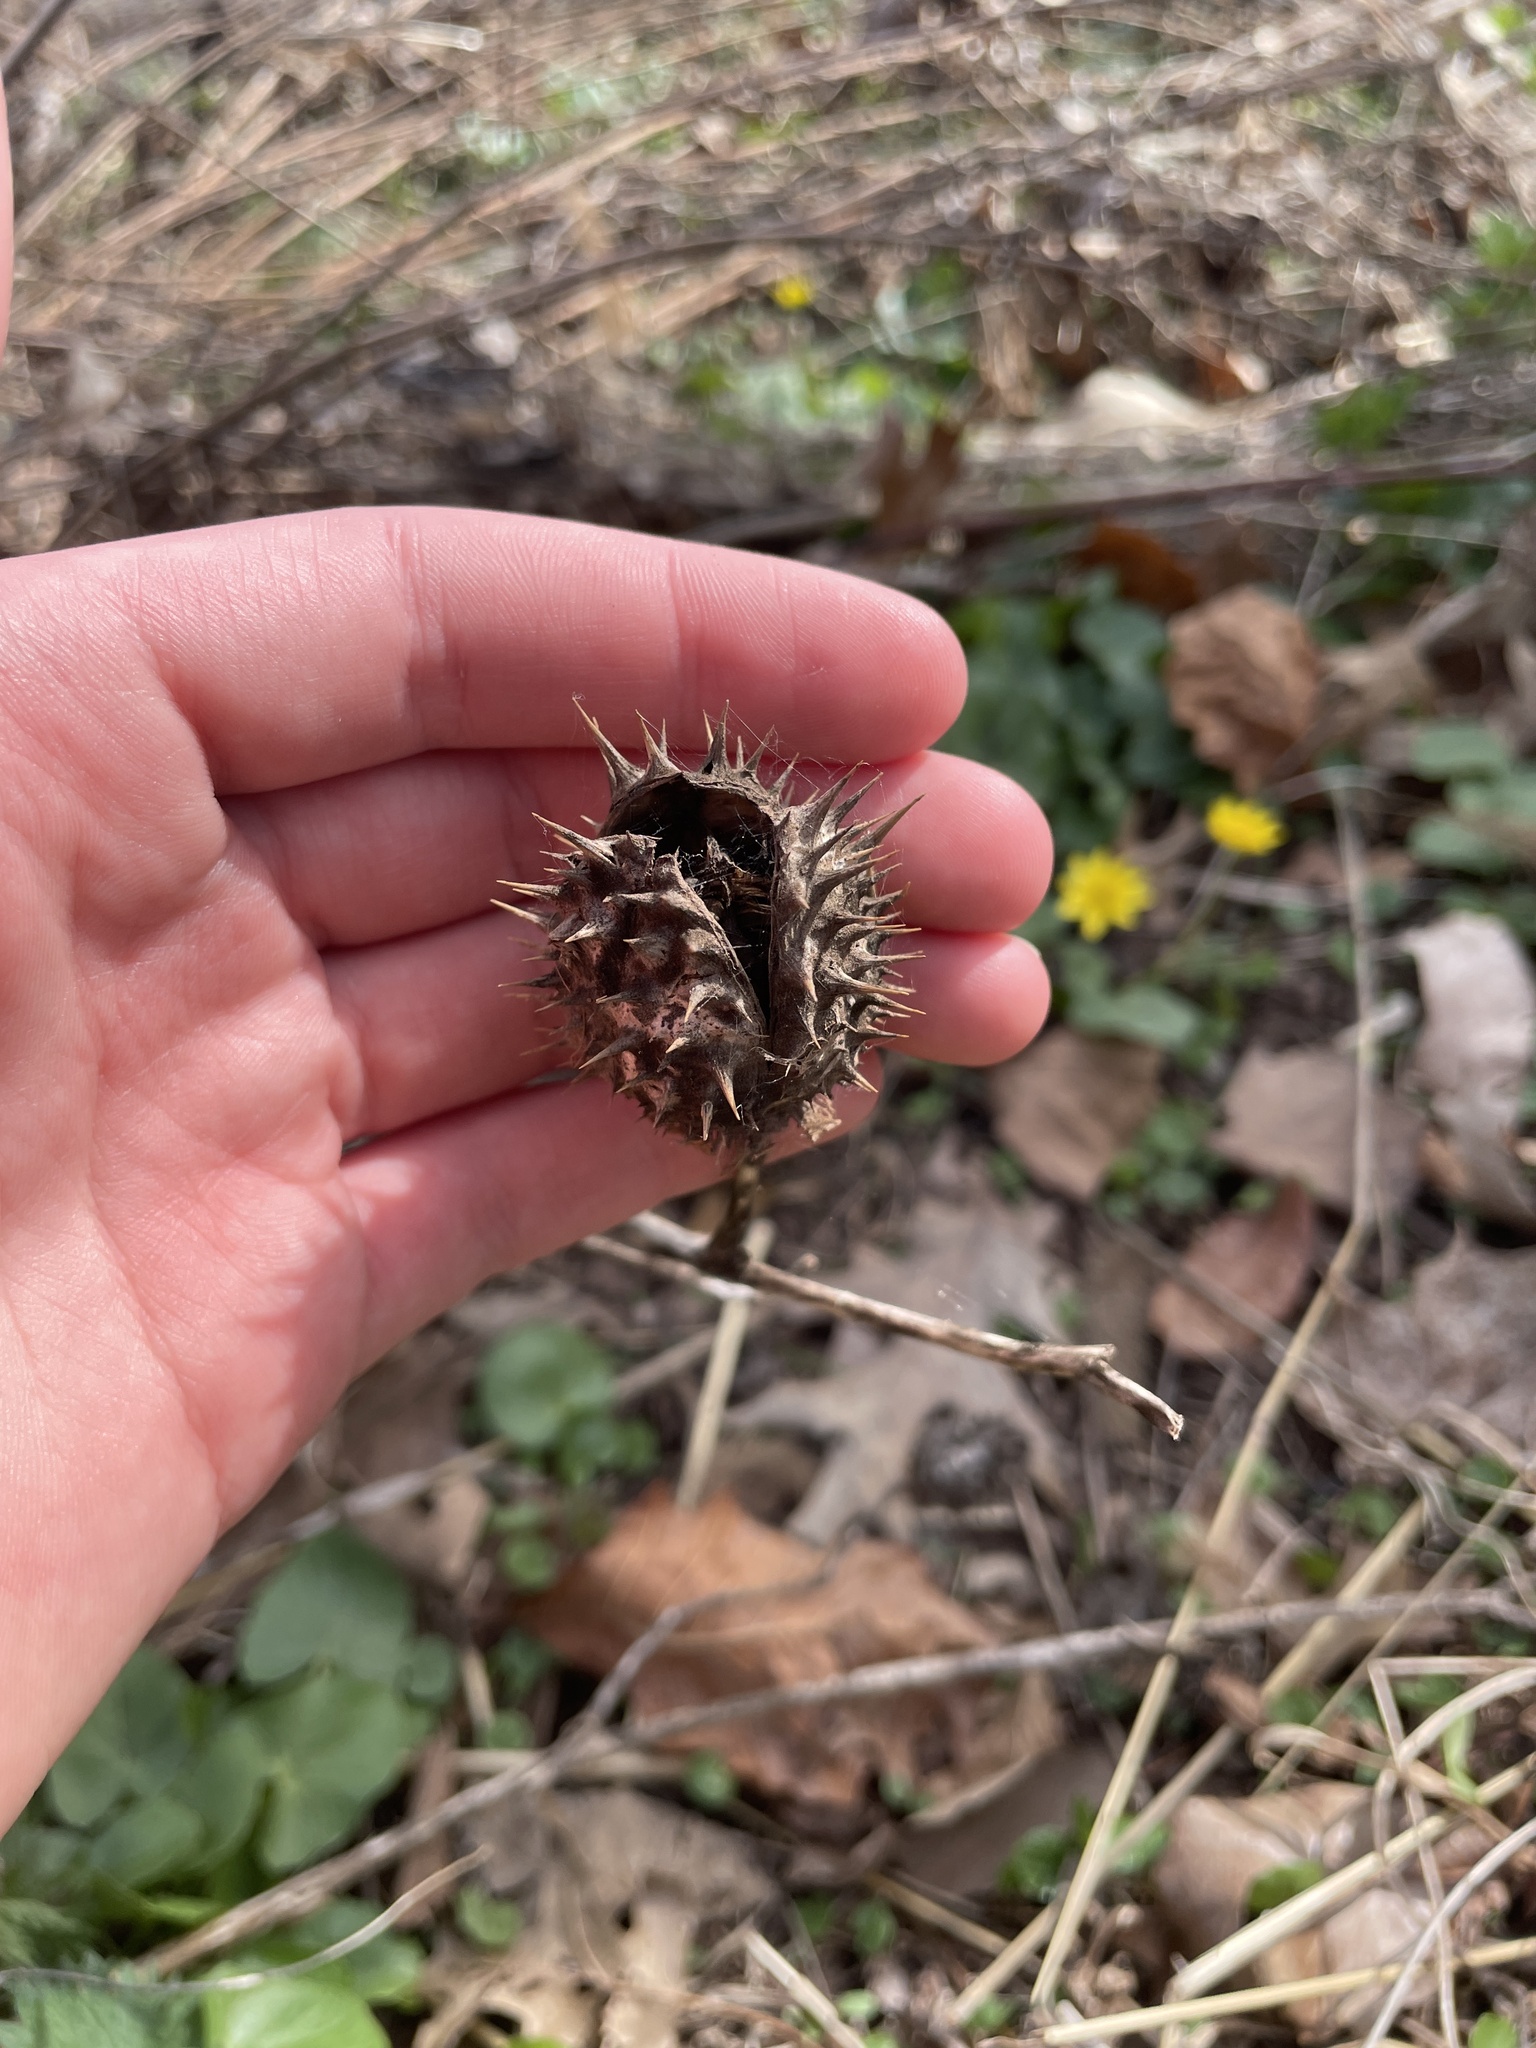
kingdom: Plantae
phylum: Tracheophyta
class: Magnoliopsida
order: Solanales
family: Solanaceae
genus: Datura
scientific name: Datura stramonium
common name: Thorn-apple
